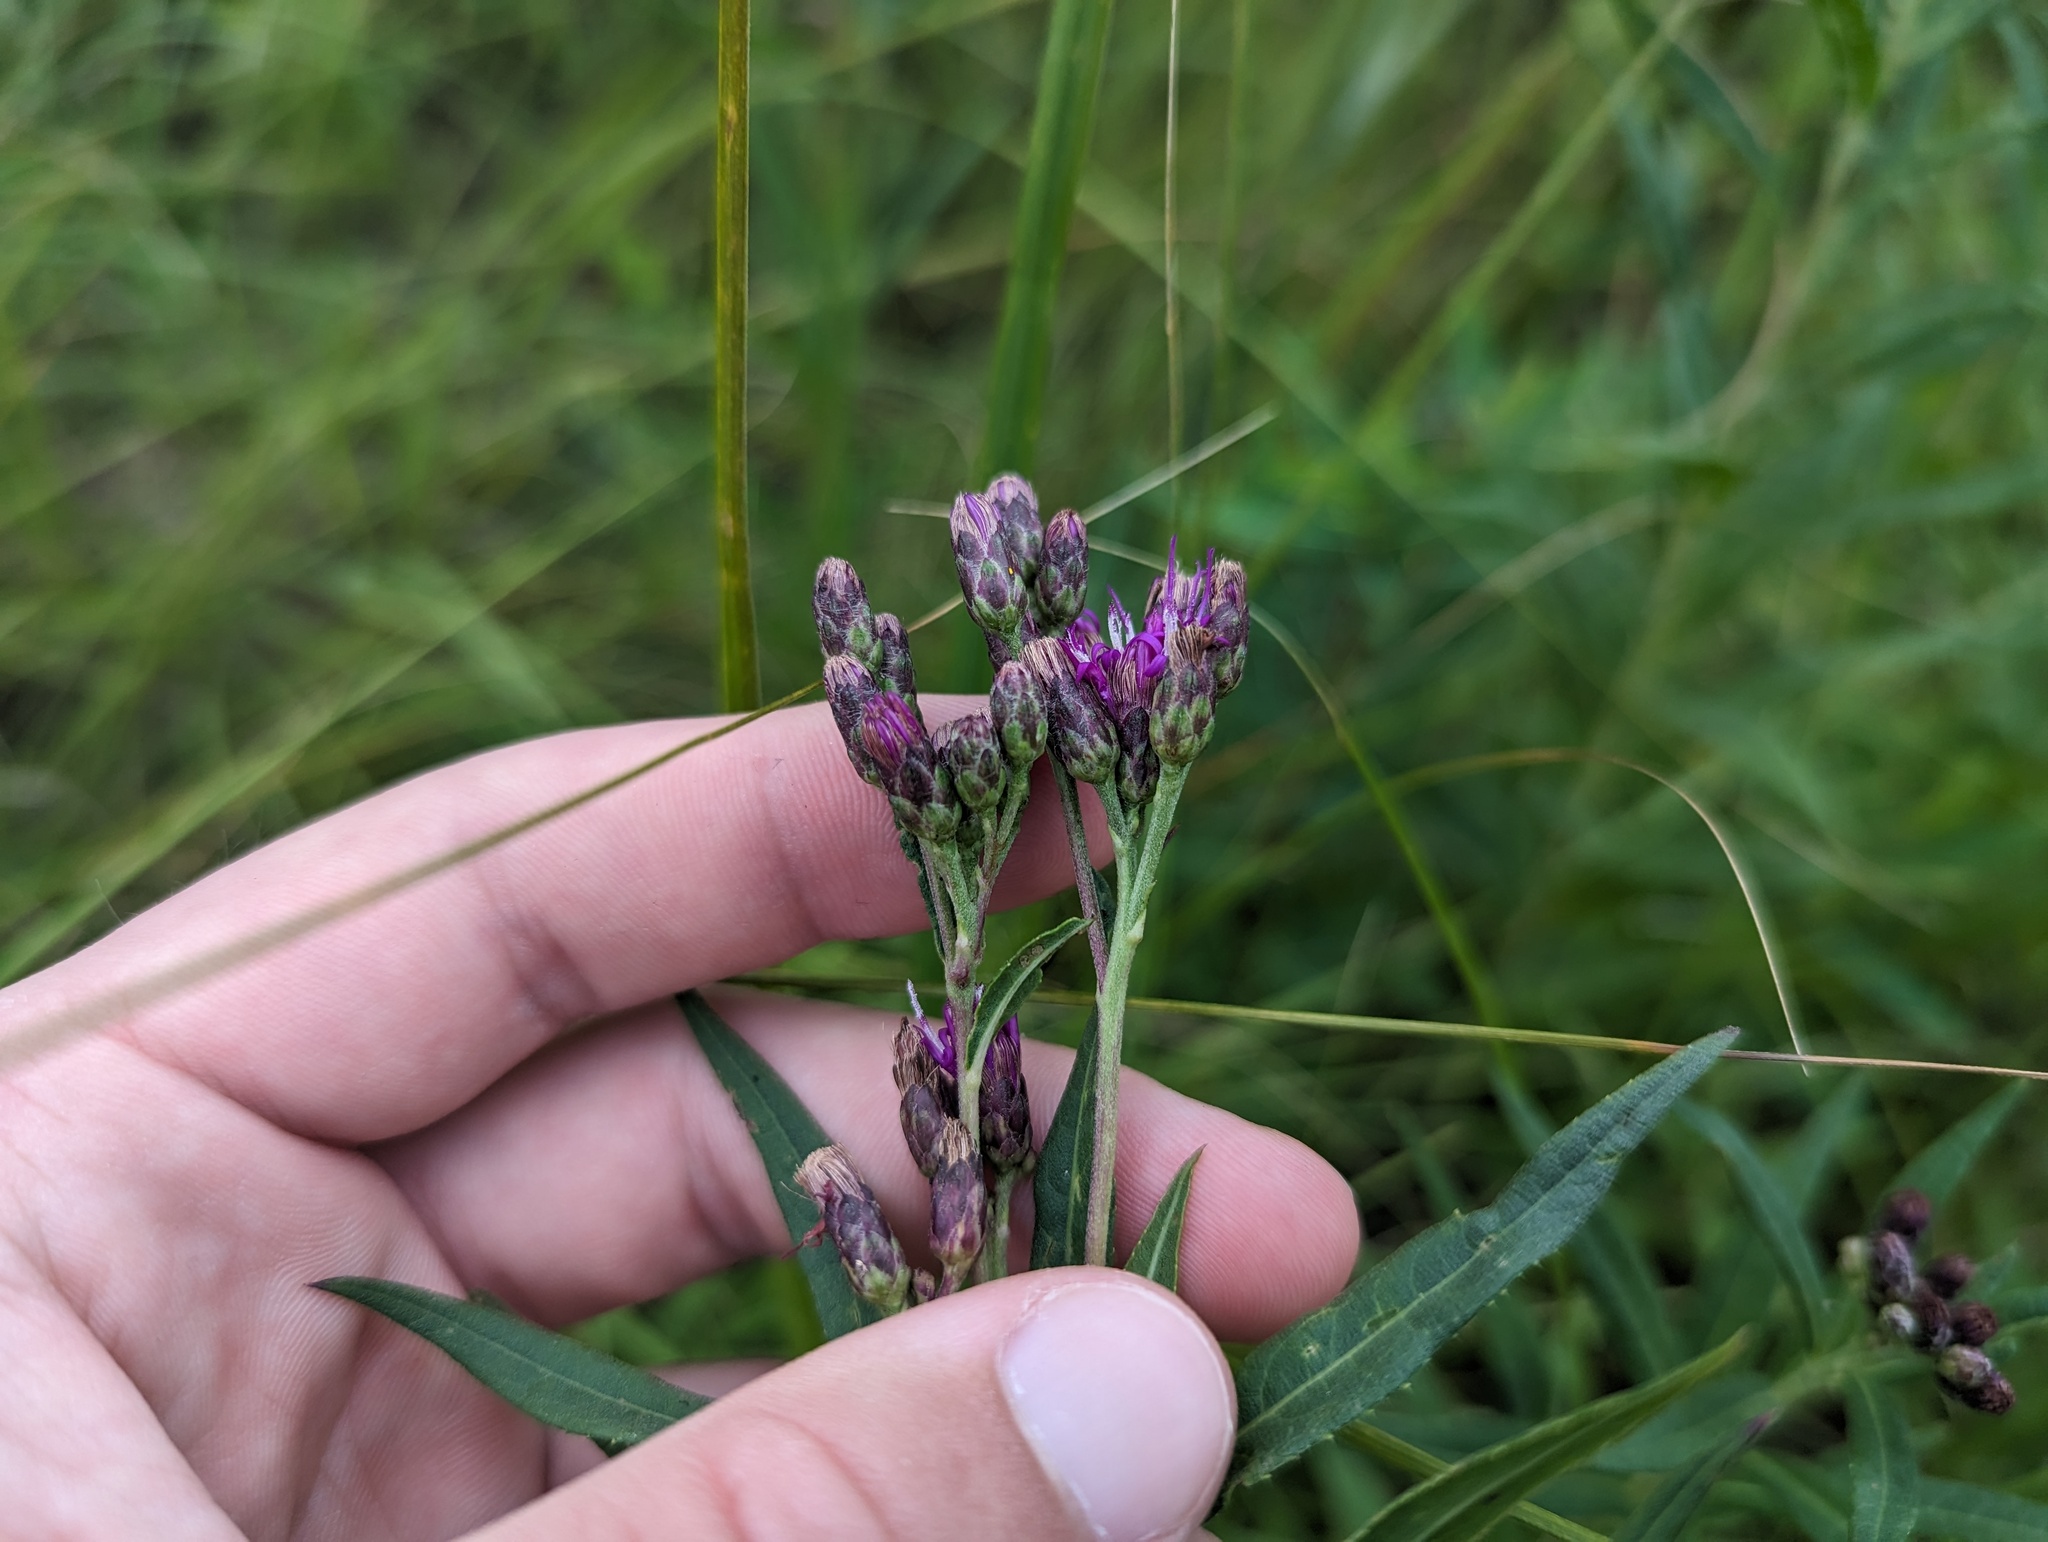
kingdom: Plantae
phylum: Tracheophyta
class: Magnoliopsida
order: Asterales
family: Asteraceae
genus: Vernonia
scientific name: Vernonia fasciculata
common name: Fascicled ironweed
